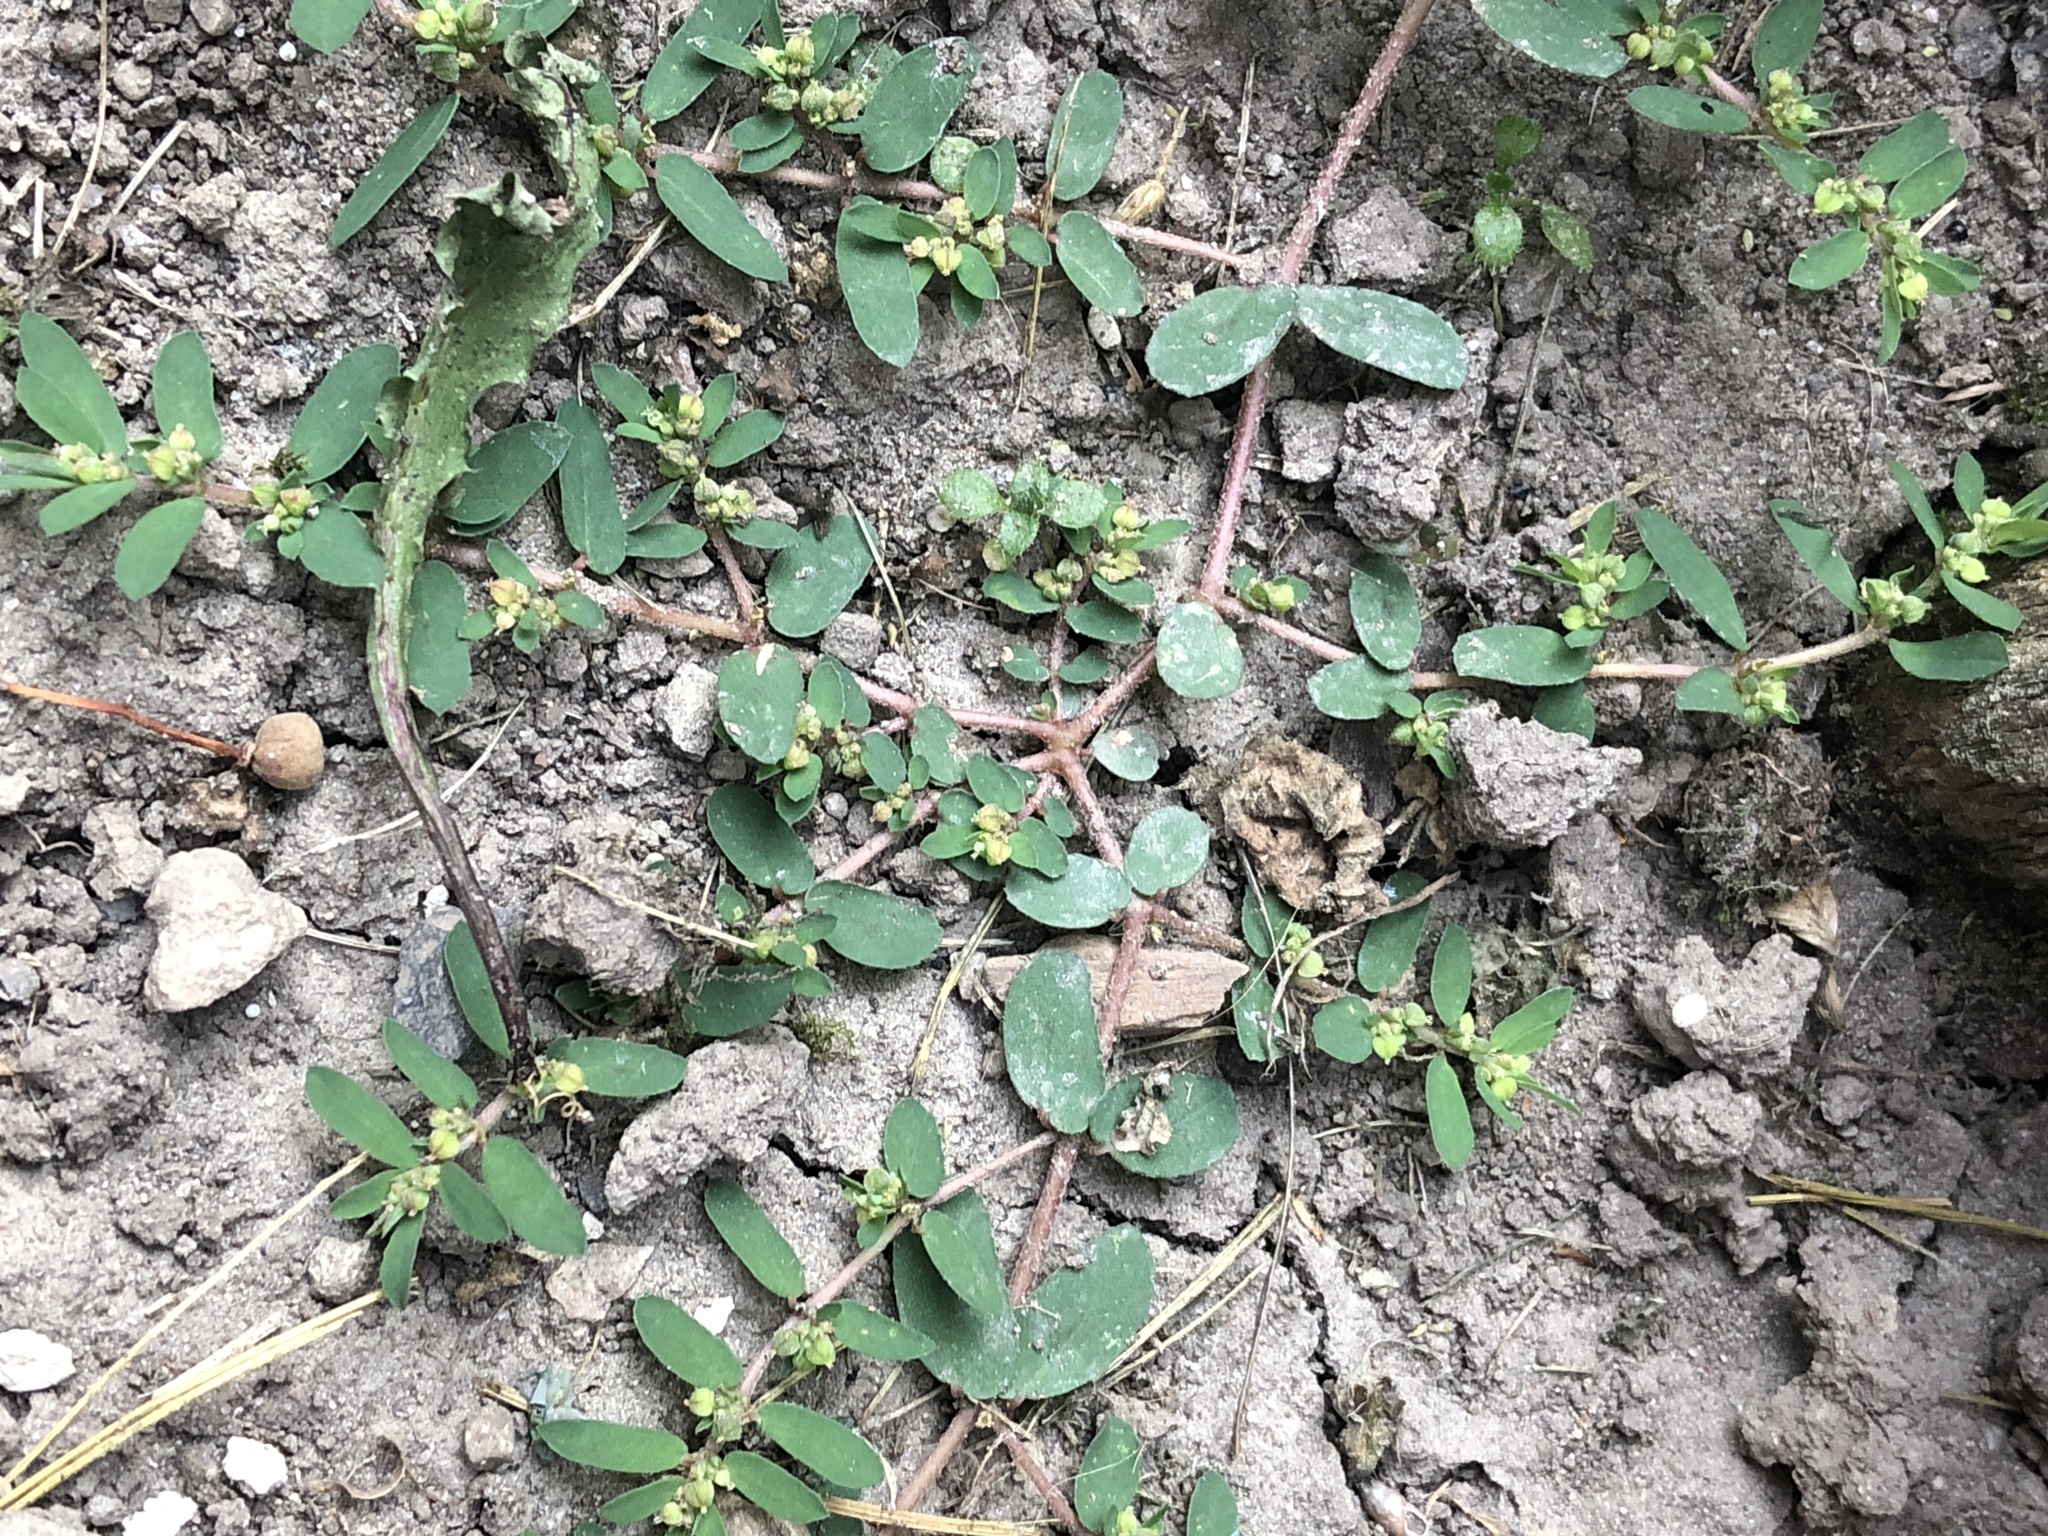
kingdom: Plantae
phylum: Tracheophyta
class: Magnoliopsida
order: Malpighiales
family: Euphorbiaceae
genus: Euphorbia
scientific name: Euphorbia maculata
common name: Spotted spurge
